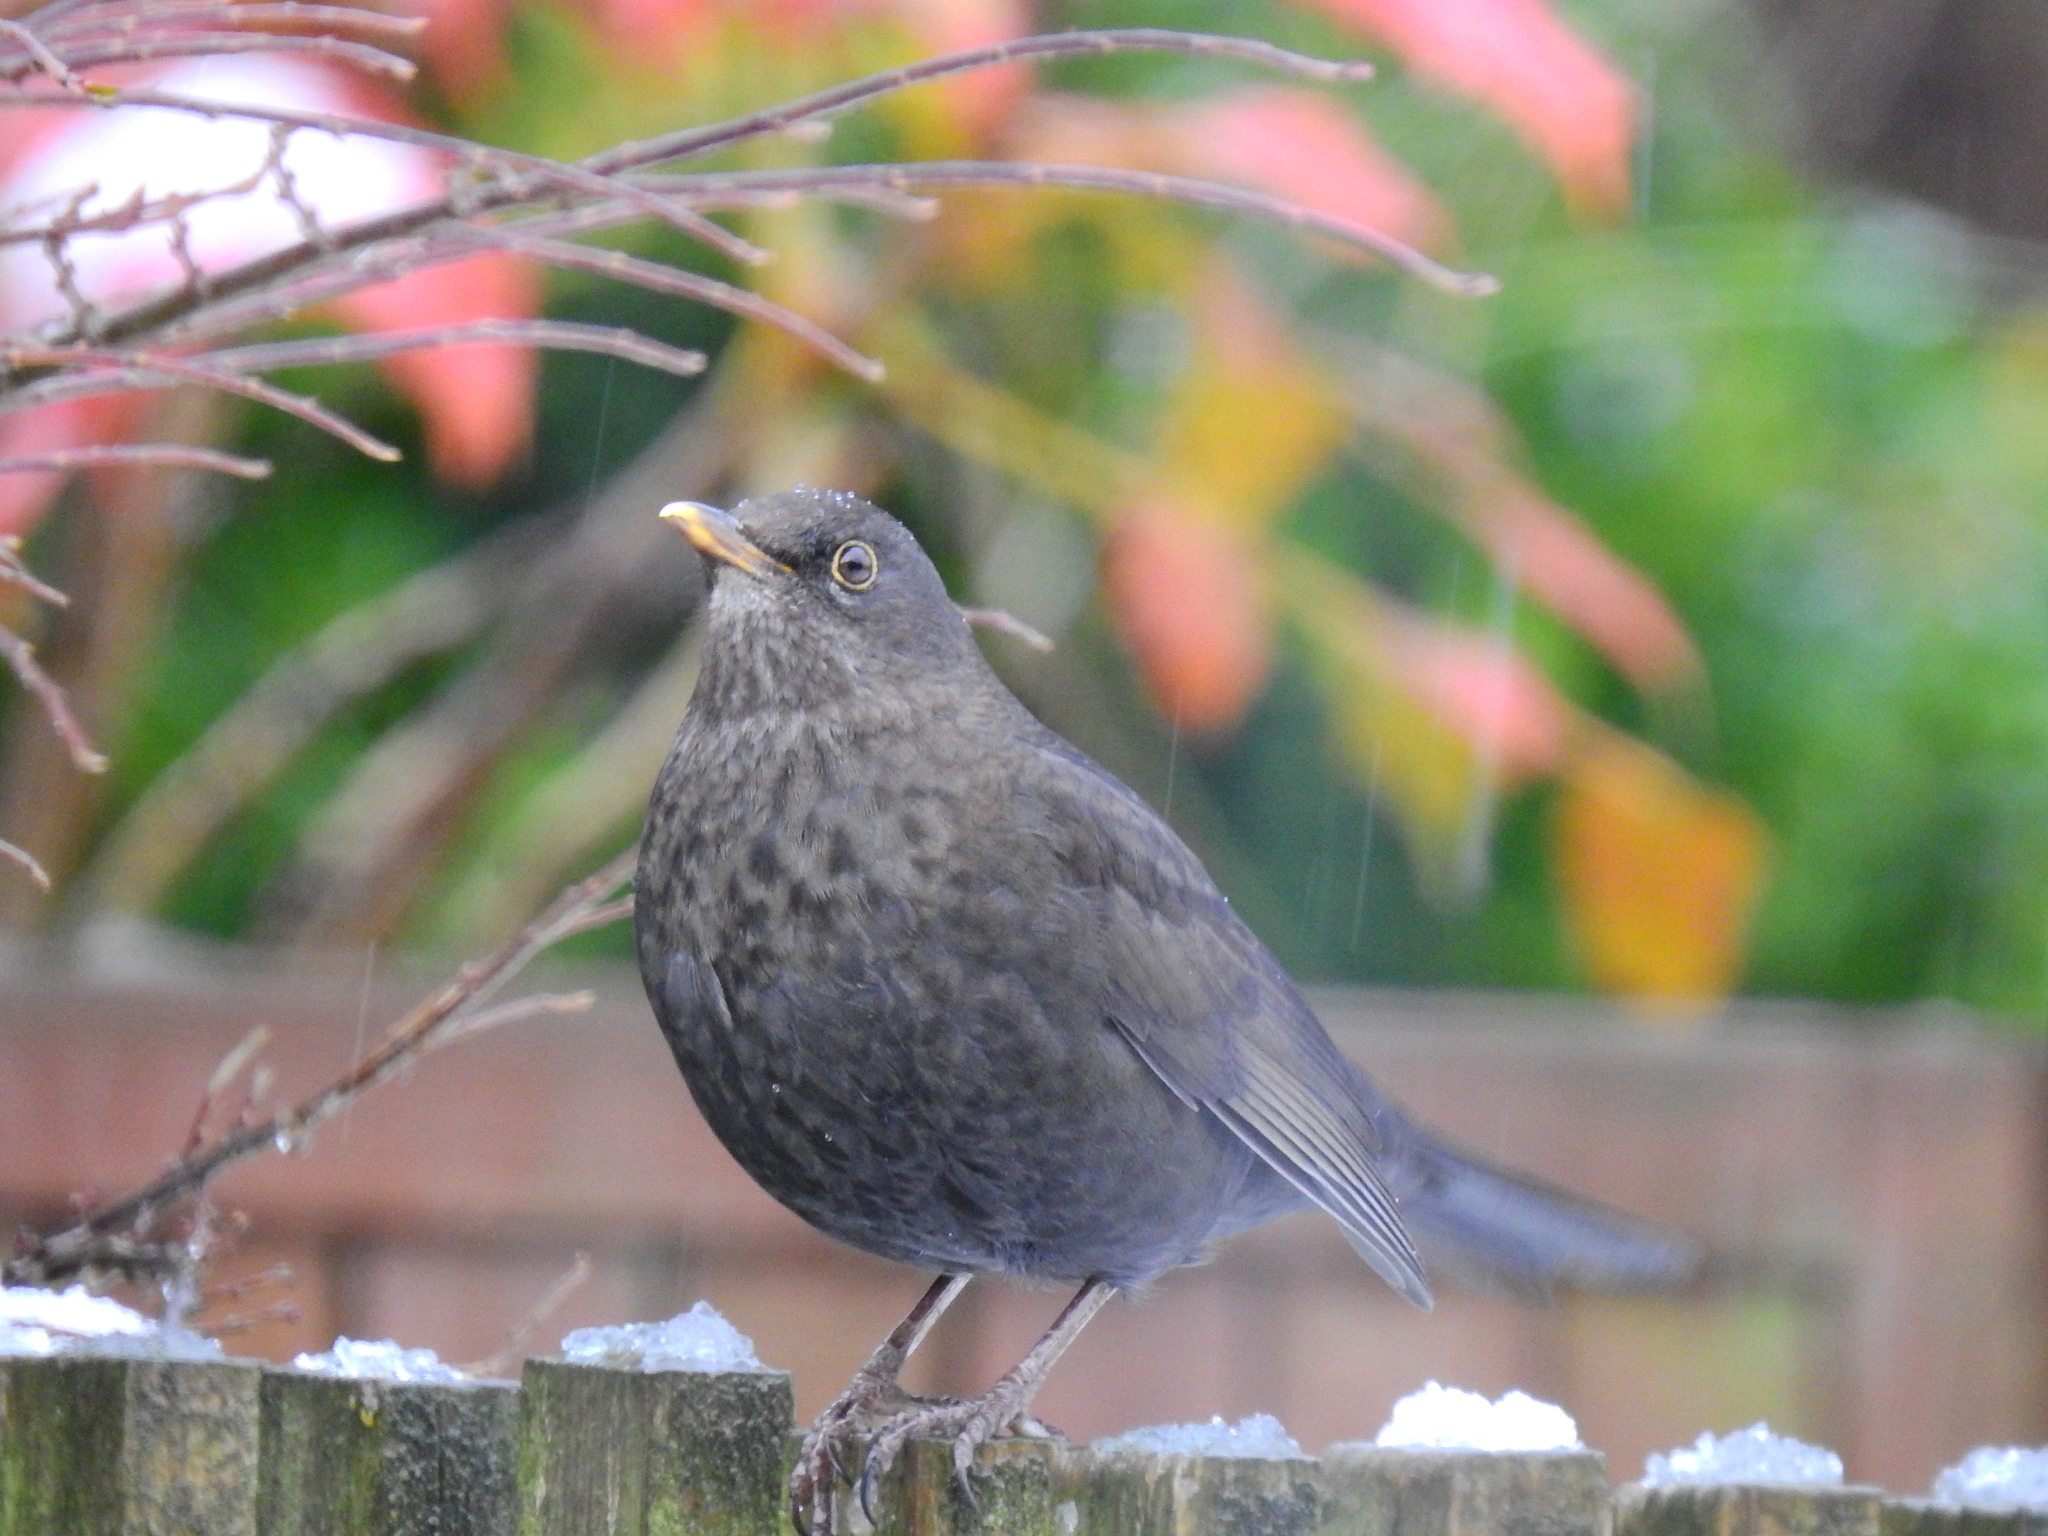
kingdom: Animalia
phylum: Chordata
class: Aves
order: Passeriformes
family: Turdidae
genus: Turdus
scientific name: Turdus merula
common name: Common blackbird
